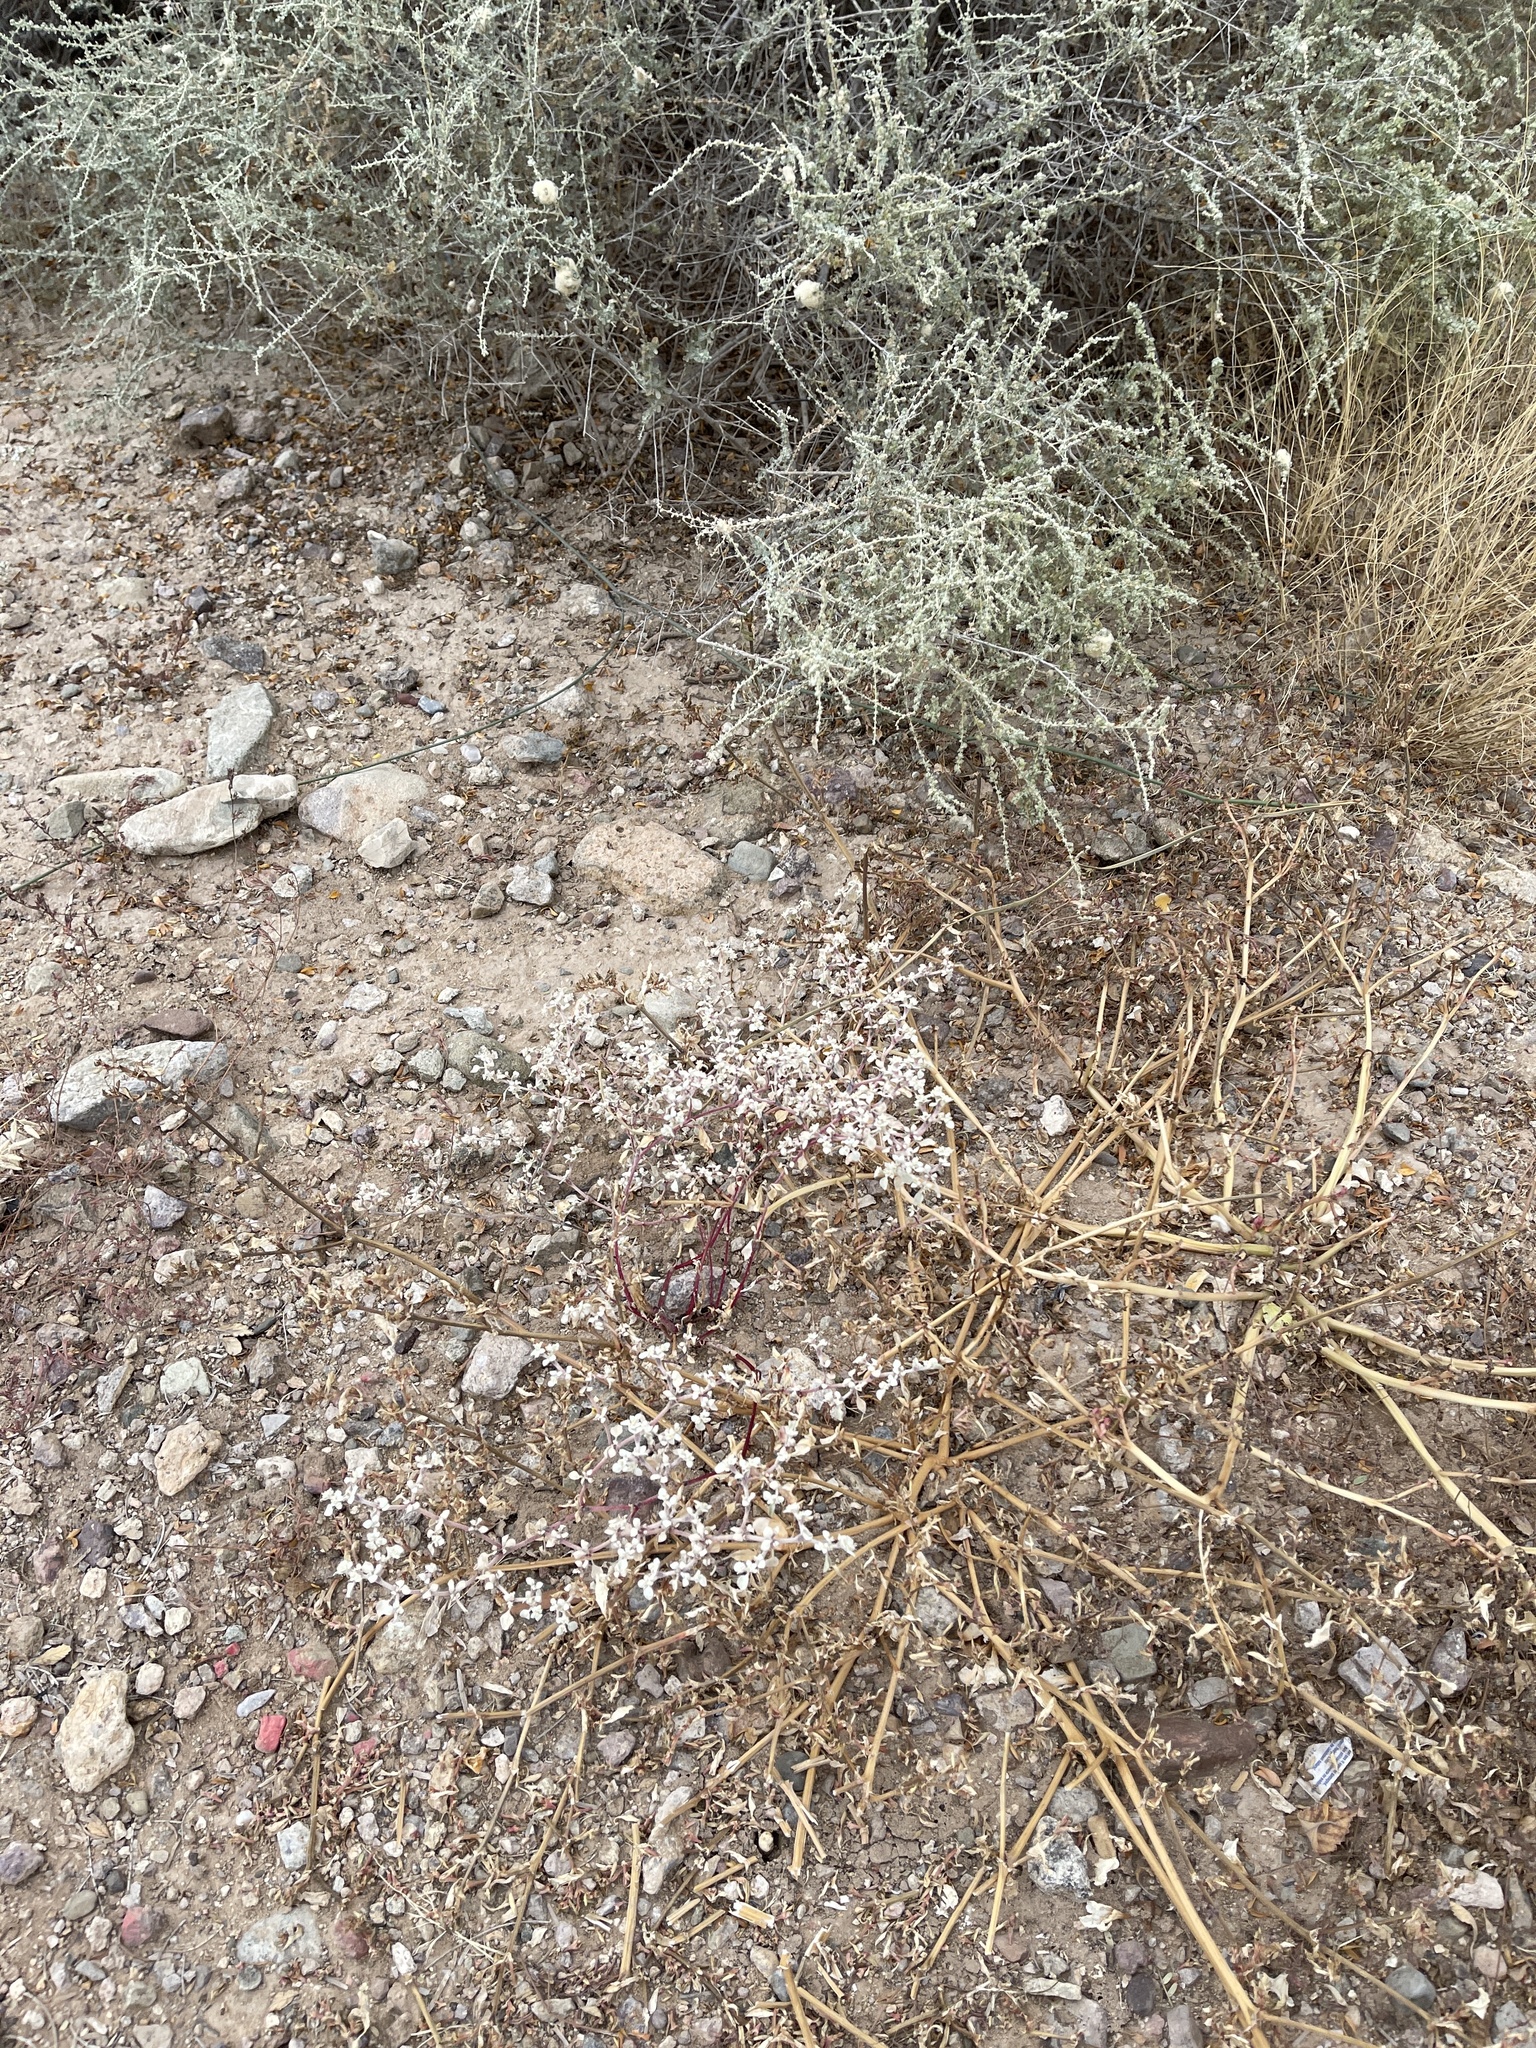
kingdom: Plantae
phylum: Tracheophyta
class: Magnoliopsida
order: Caryophyllales
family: Amaranthaceae
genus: Tidestromia
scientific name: Tidestromia lanuginosa
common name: Woolly tidestromia
